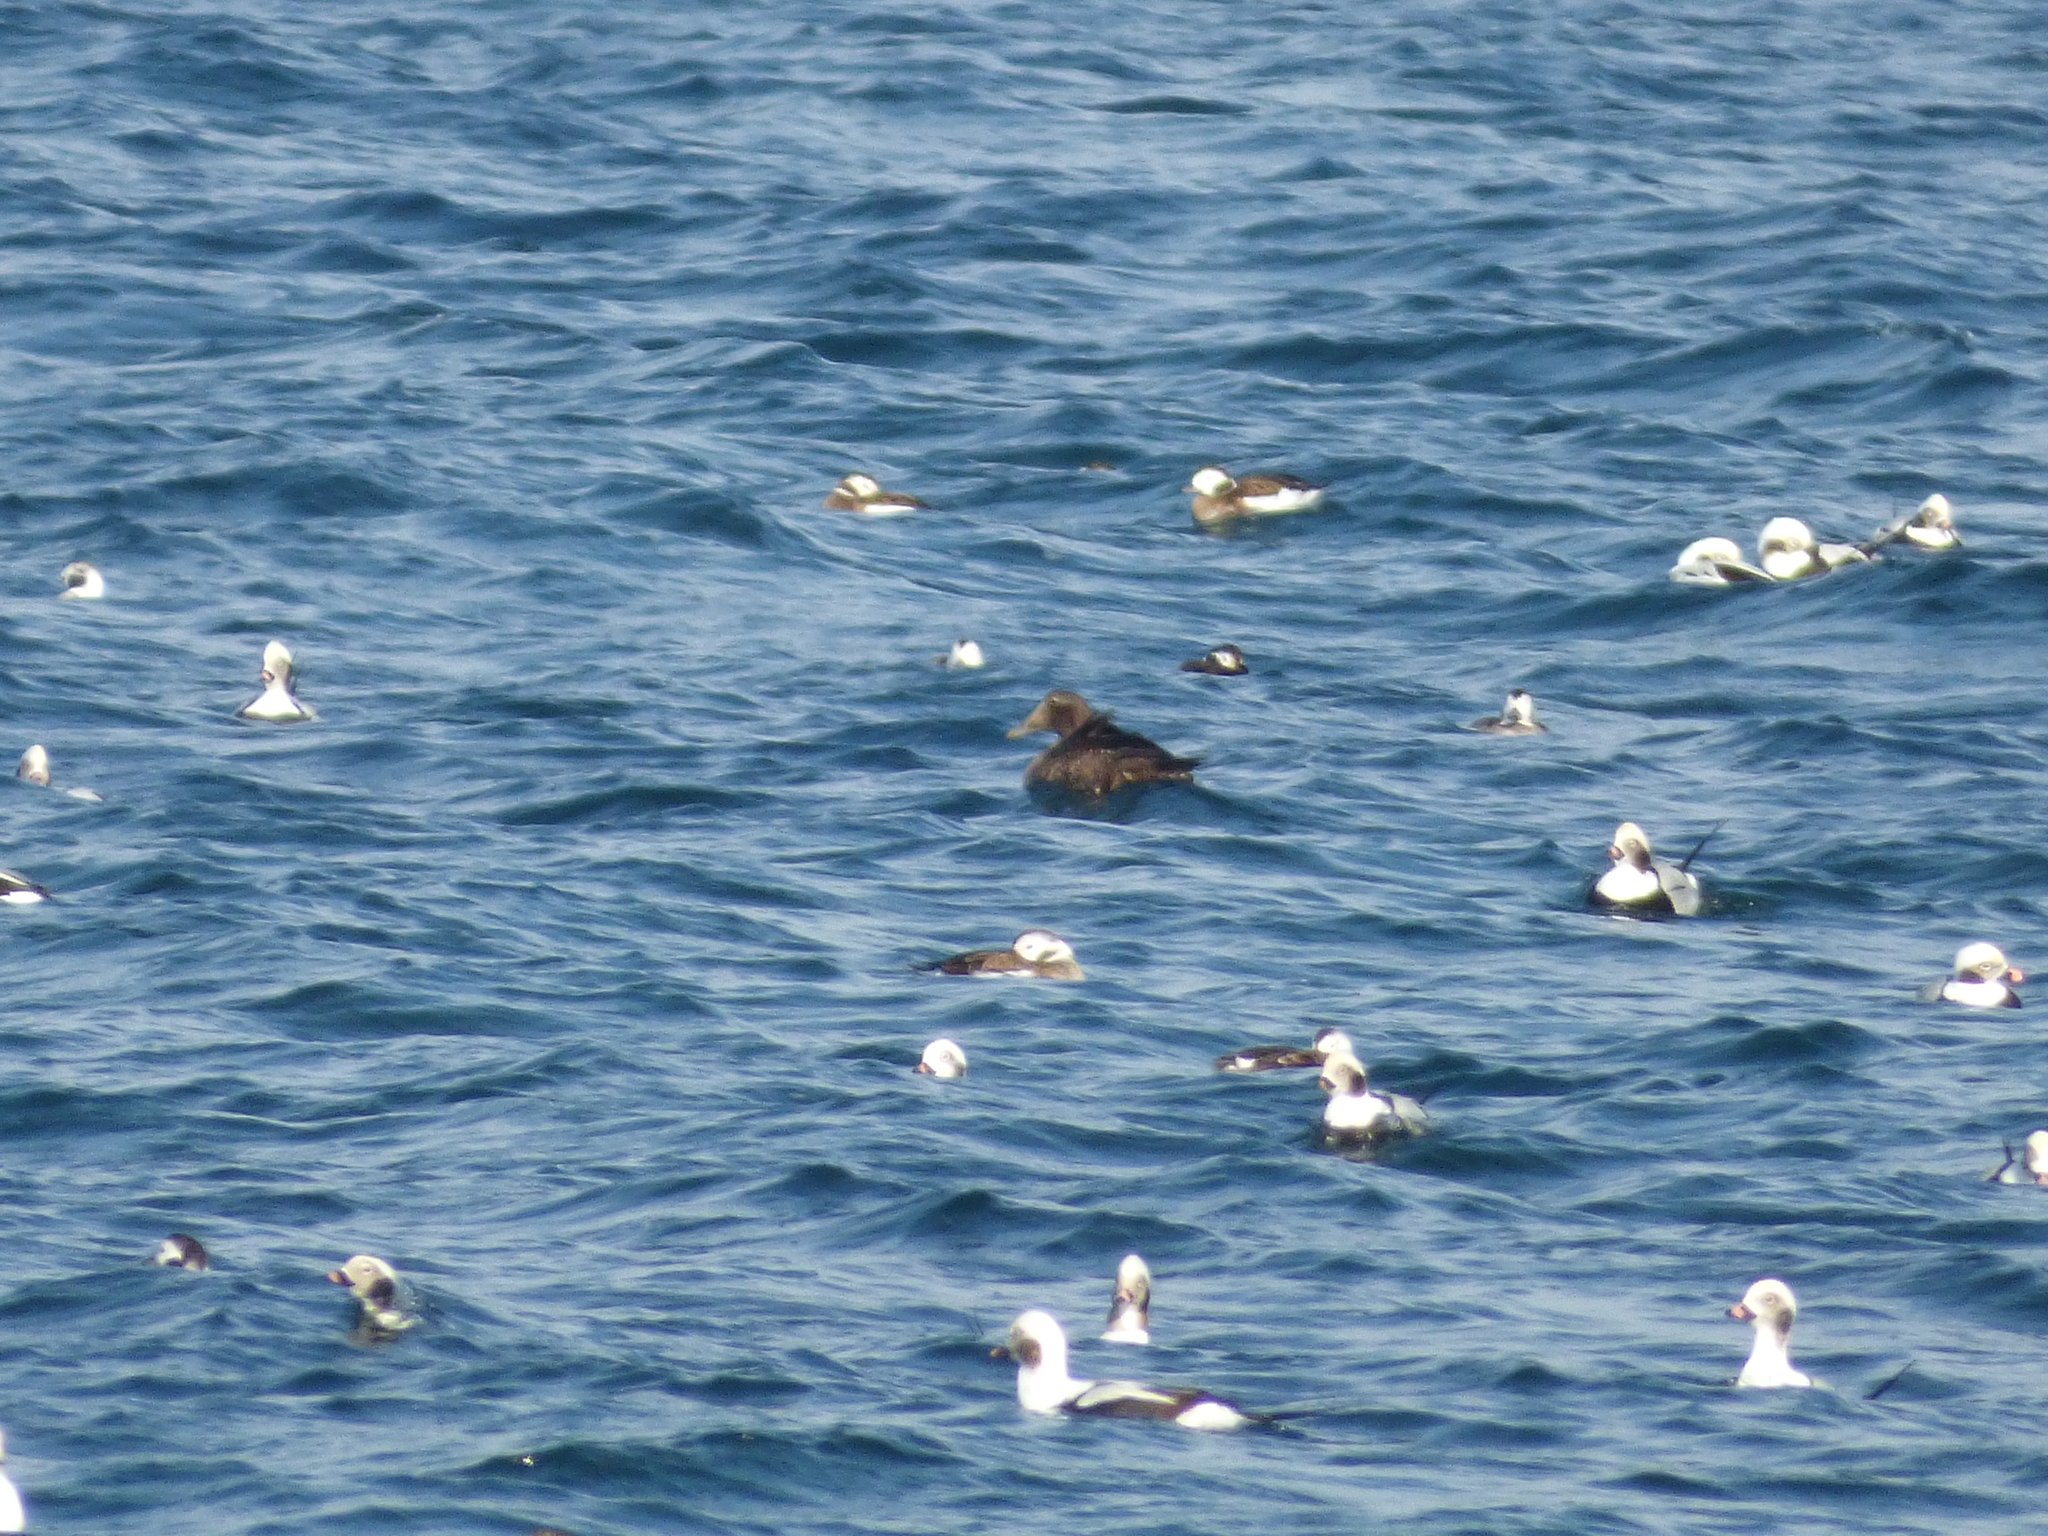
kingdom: Animalia
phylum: Chordata
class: Aves
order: Anseriformes
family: Anatidae
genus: Somateria
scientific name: Somateria mollissima
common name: Common eider
